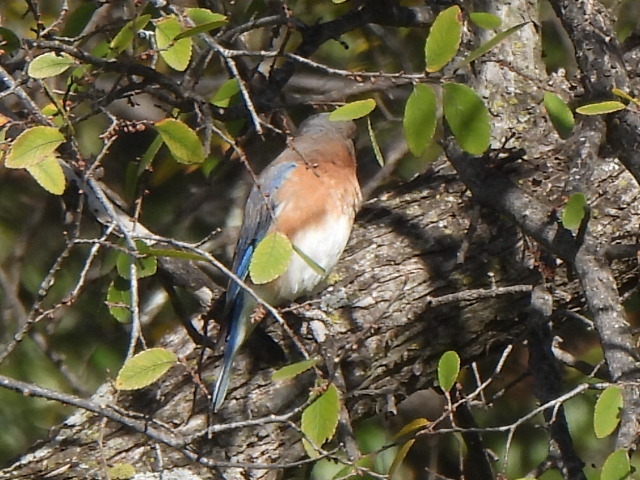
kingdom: Animalia
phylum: Chordata
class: Aves
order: Passeriformes
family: Turdidae
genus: Sialia
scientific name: Sialia sialis
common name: Eastern bluebird
